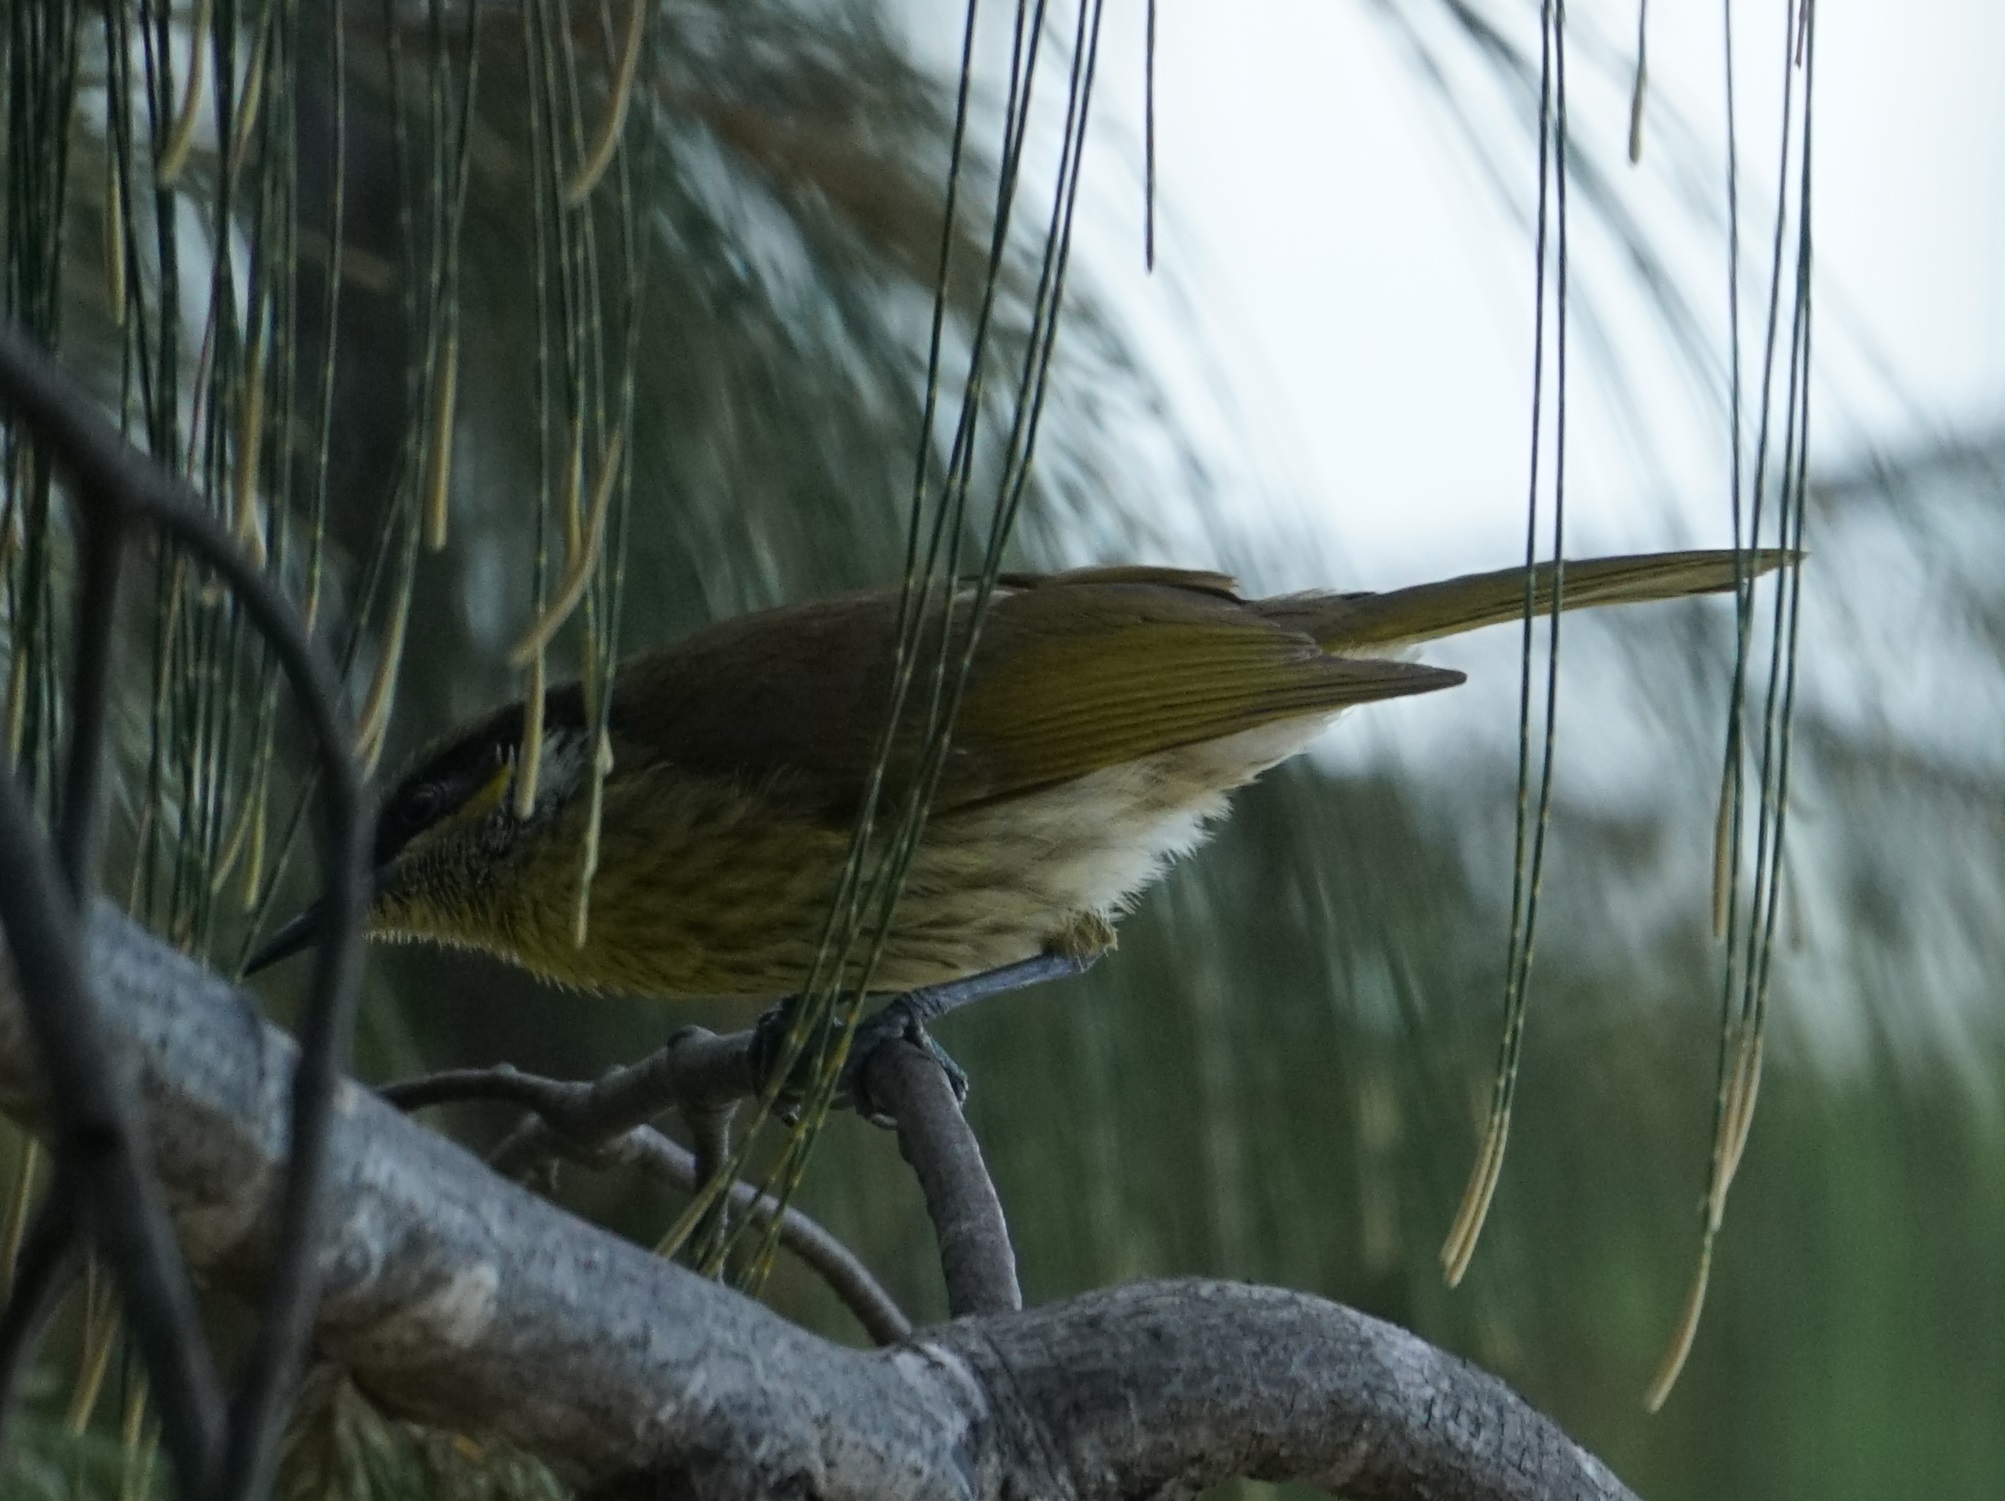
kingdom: Animalia
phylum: Chordata
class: Aves
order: Passeriformes
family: Meliphagidae
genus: Gavicalis
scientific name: Gavicalis versicolor
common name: Varied honeyeater
